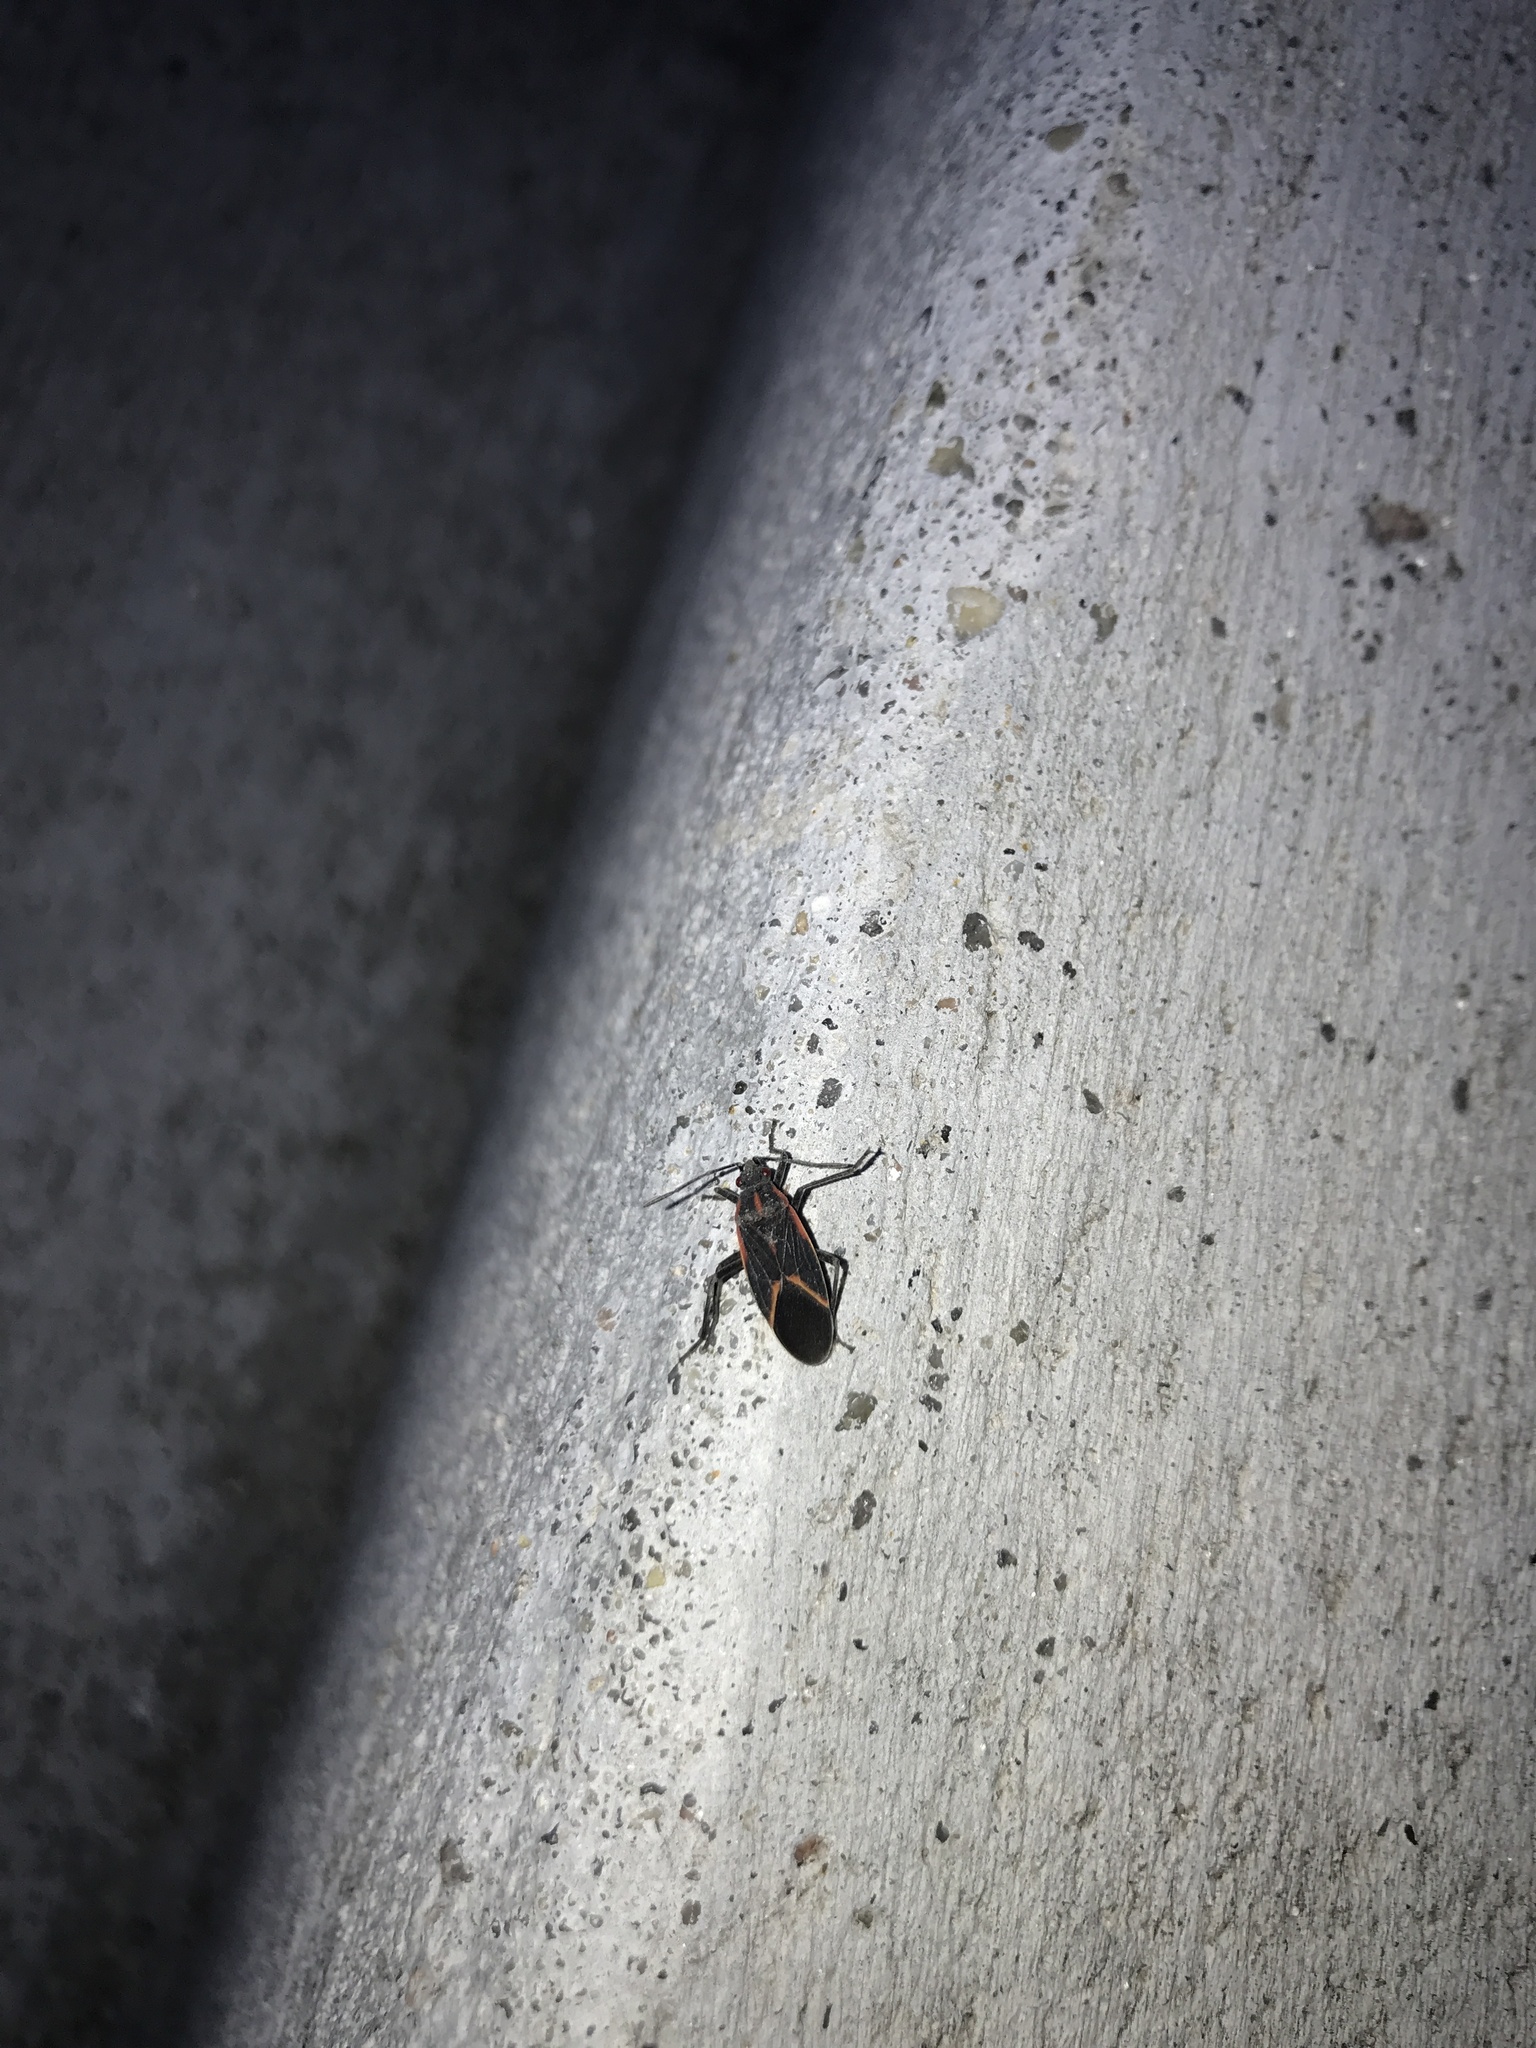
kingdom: Animalia
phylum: Arthropoda
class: Insecta
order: Hemiptera
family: Rhopalidae
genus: Boisea
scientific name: Boisea trivittata
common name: Boxelder bug
